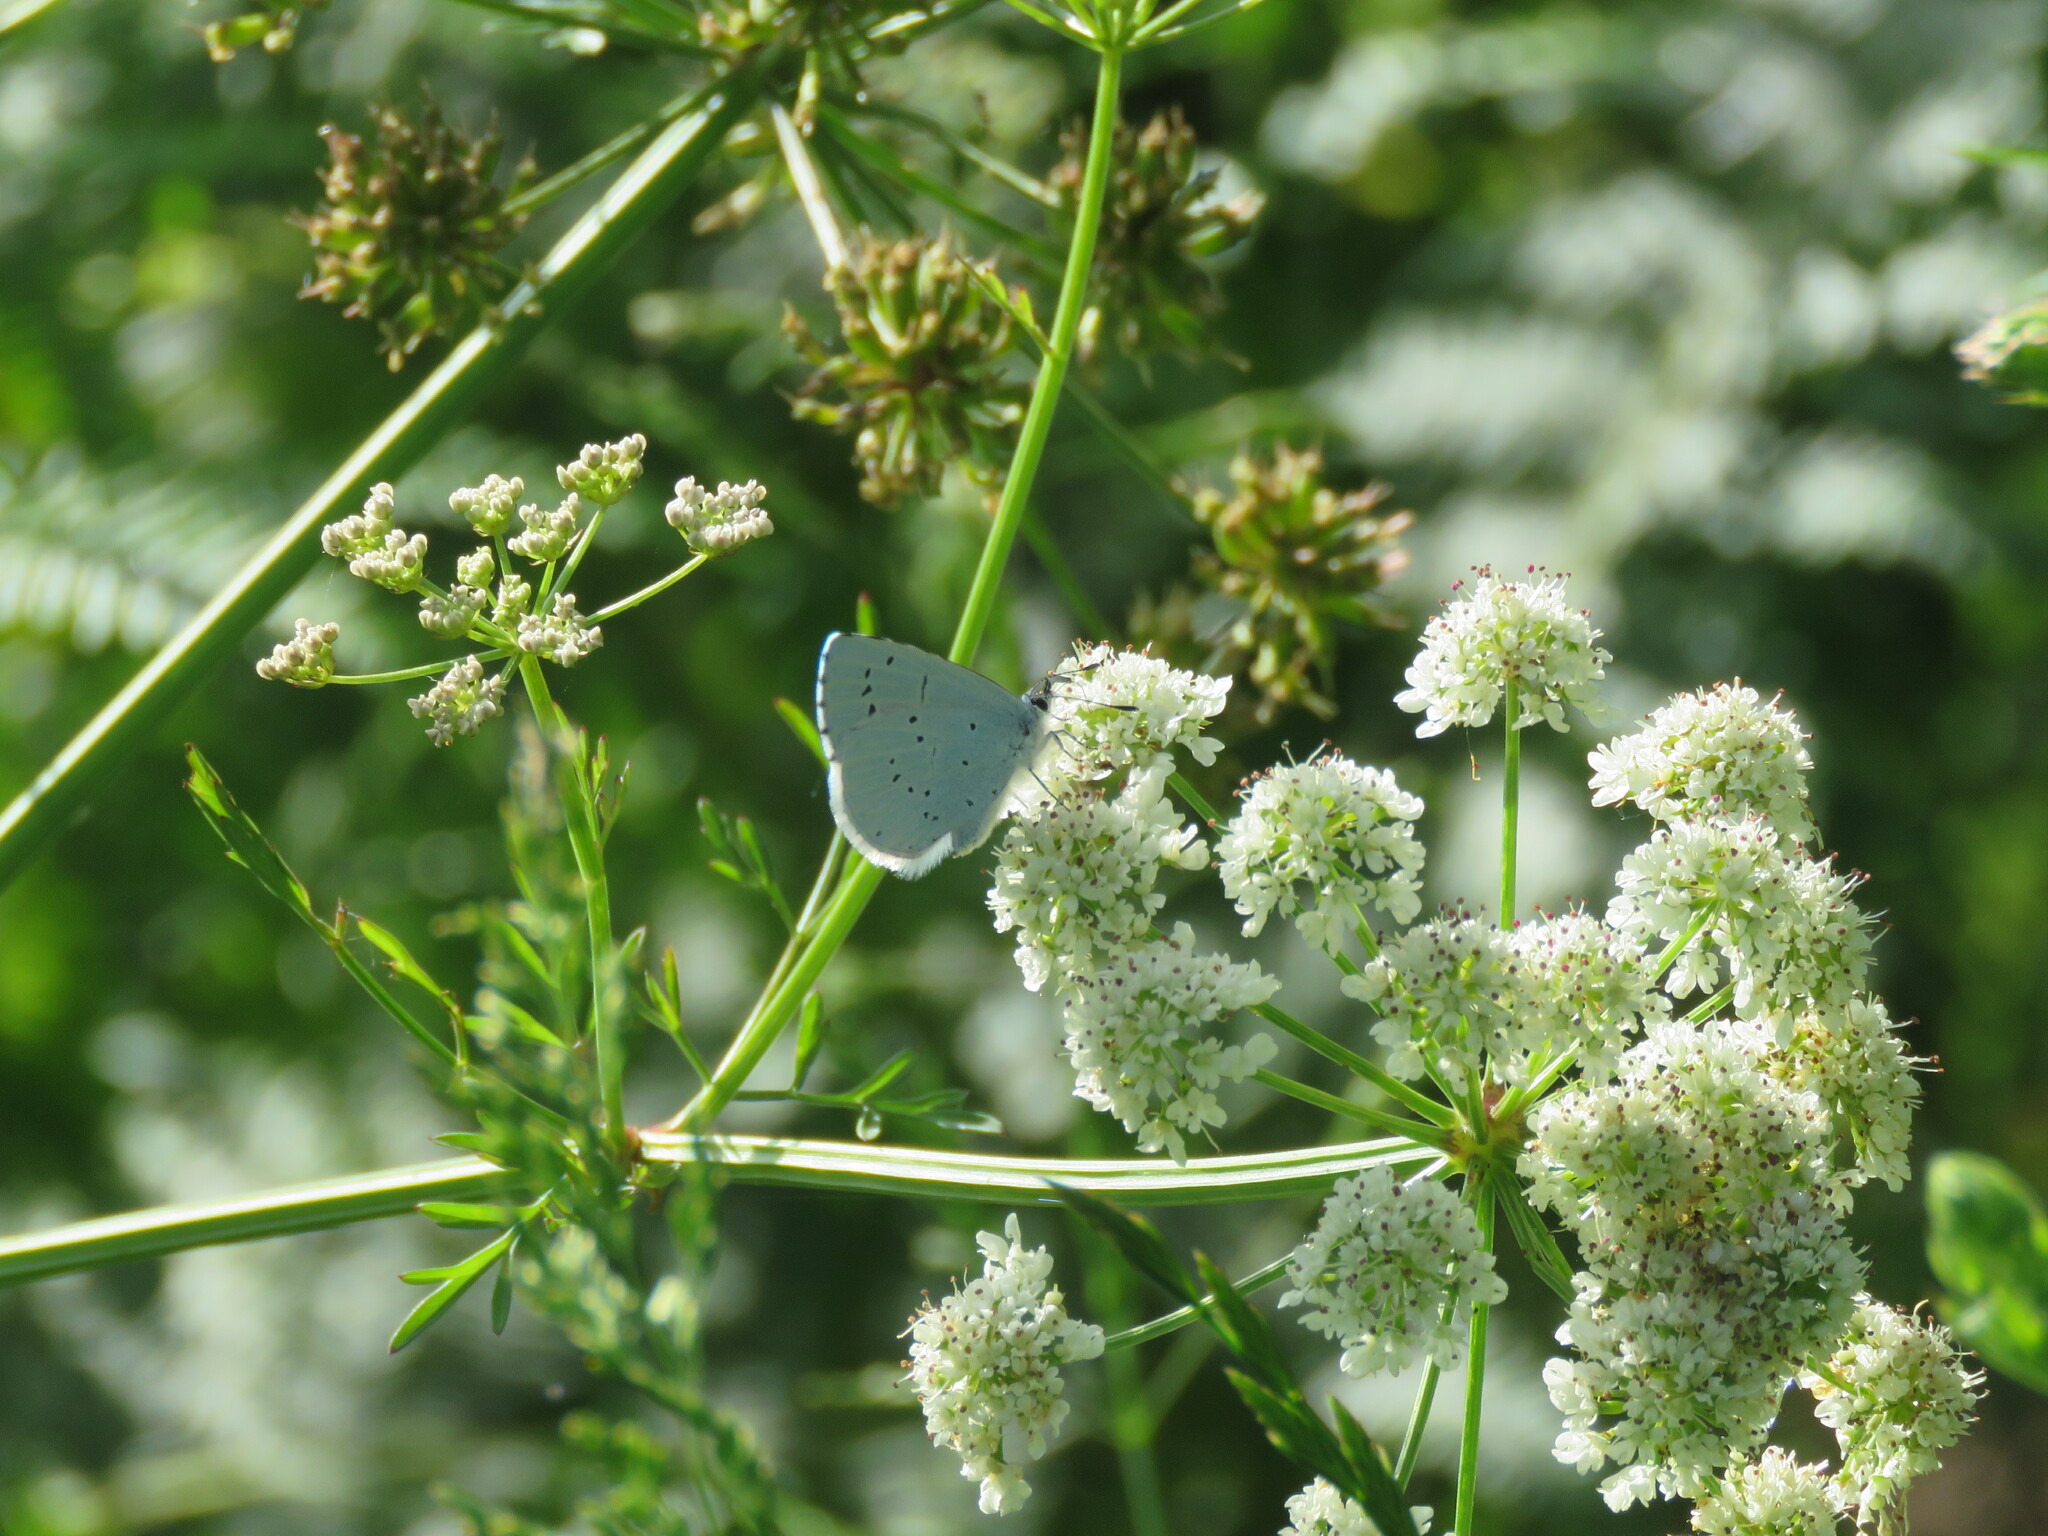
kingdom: Animalia
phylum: Arthropoda
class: Insecta
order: Lepidoptera
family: Lycaenidae
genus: Celastrina
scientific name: Celastrina argiolus
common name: Holly blue
